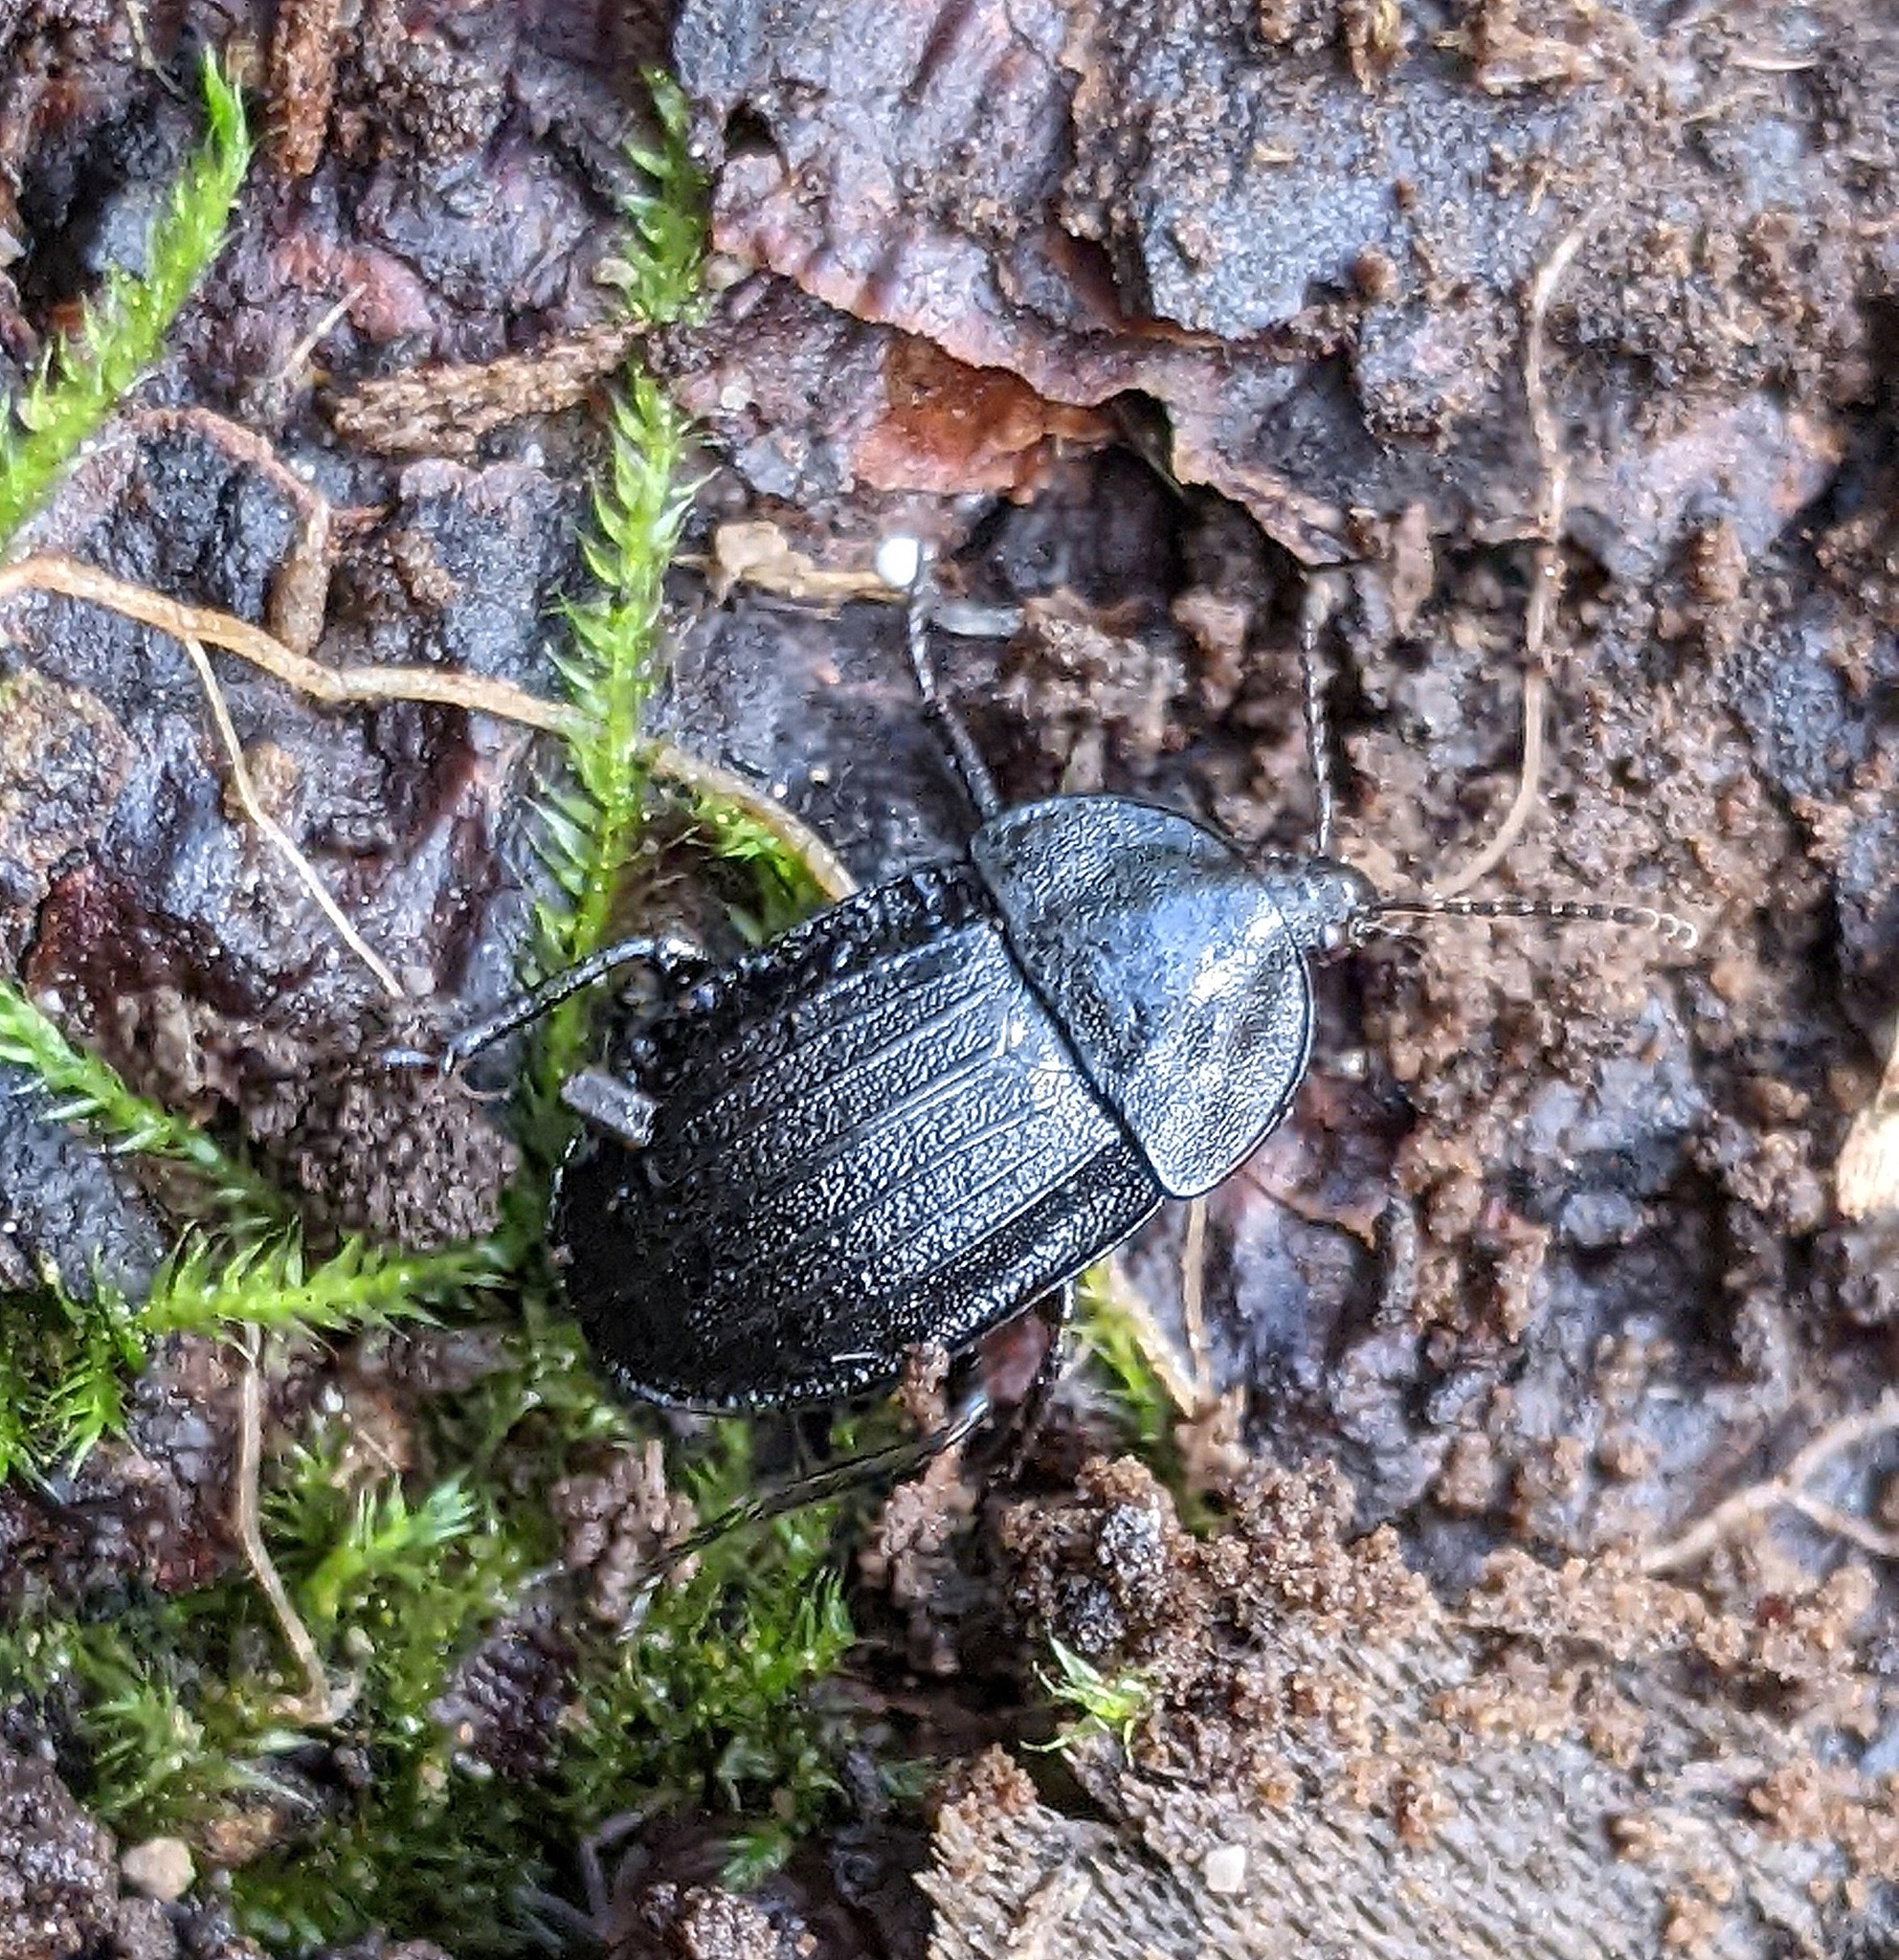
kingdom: Animalia
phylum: Arthropoda
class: Insecta
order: Coleoptera
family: Staphylinidae
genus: Silpha
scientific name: Silpha atrata
